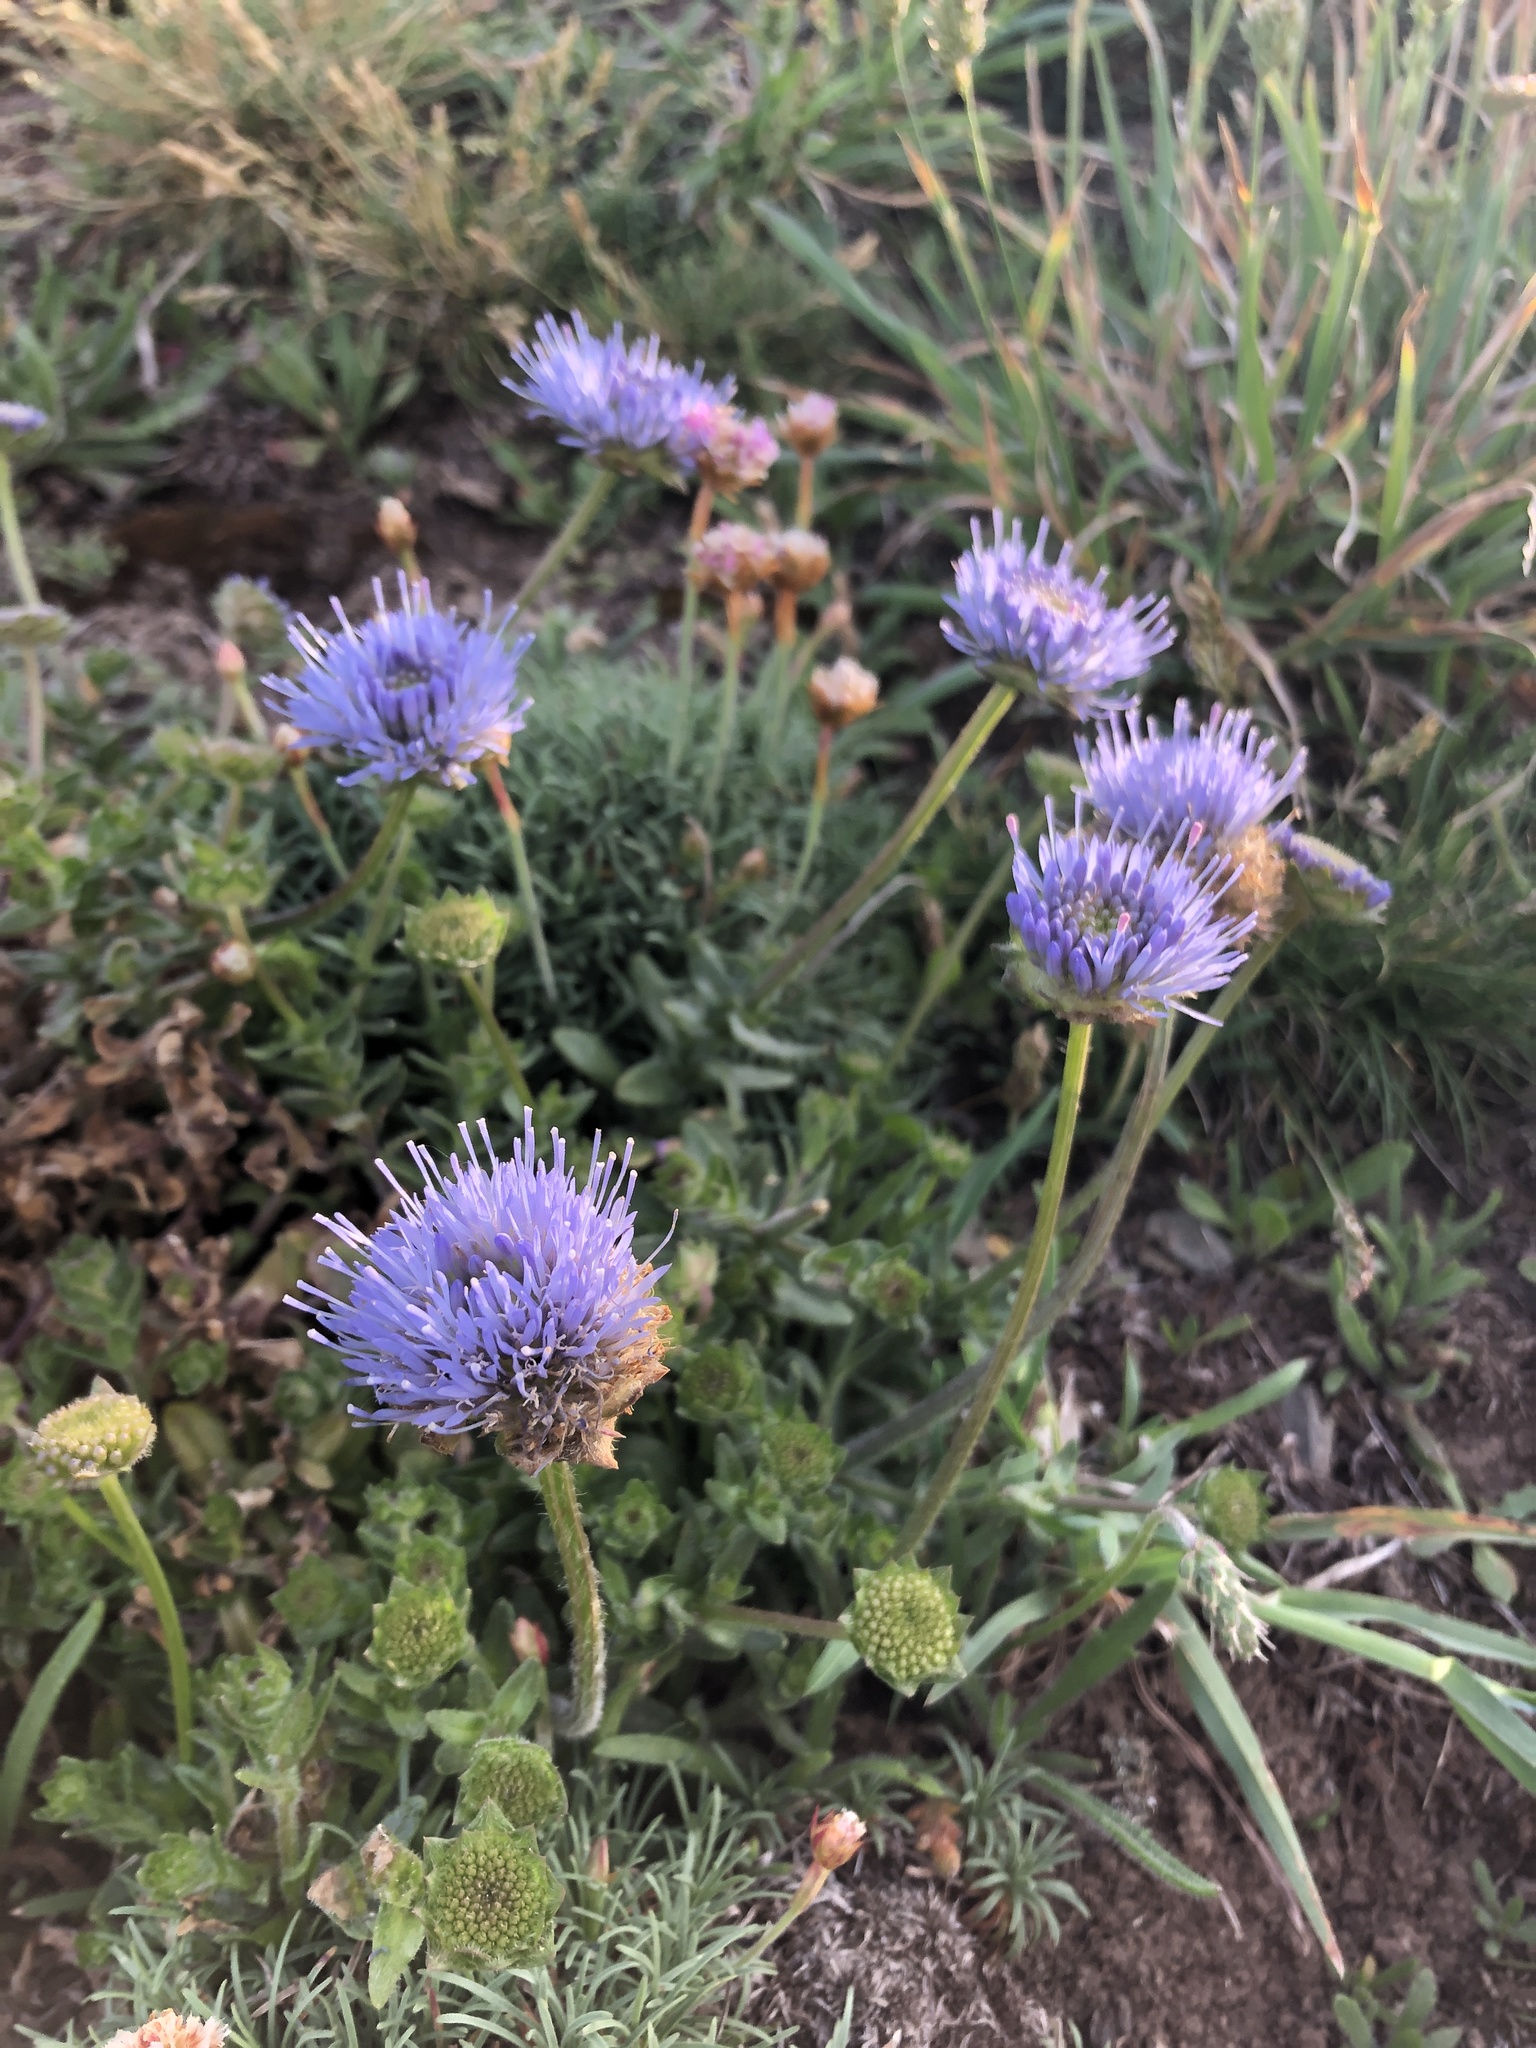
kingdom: Plantae
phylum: Tracheophyta
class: Magnoliopsida
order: Asterales
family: Campanulaceae
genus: Jasione
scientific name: Jasione montana
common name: Sheep's-bit
